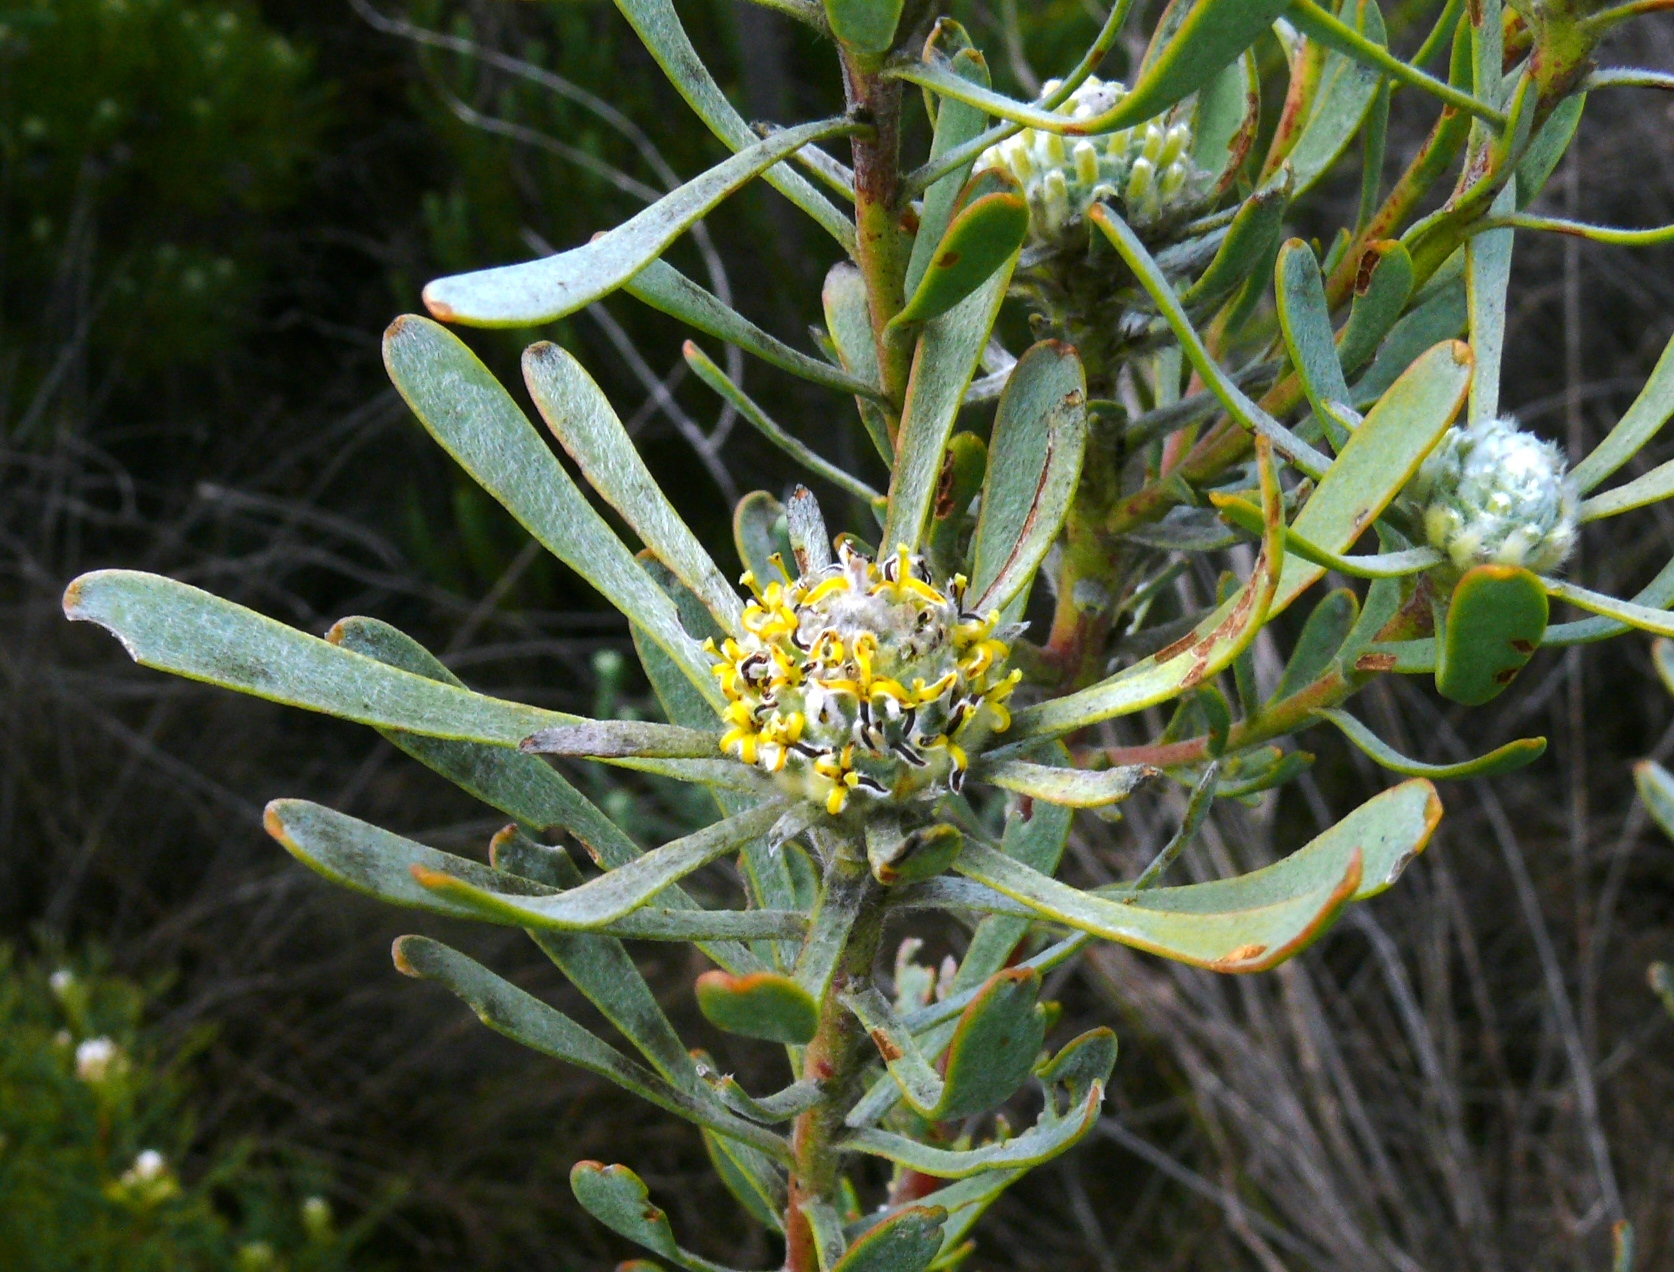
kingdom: Plantae
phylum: Tracheophyta
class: Magnoliopsida
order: Proteales
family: Proteaceae
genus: Leucadendron
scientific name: Leucadendron cinereum
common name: Scraggly conebush
